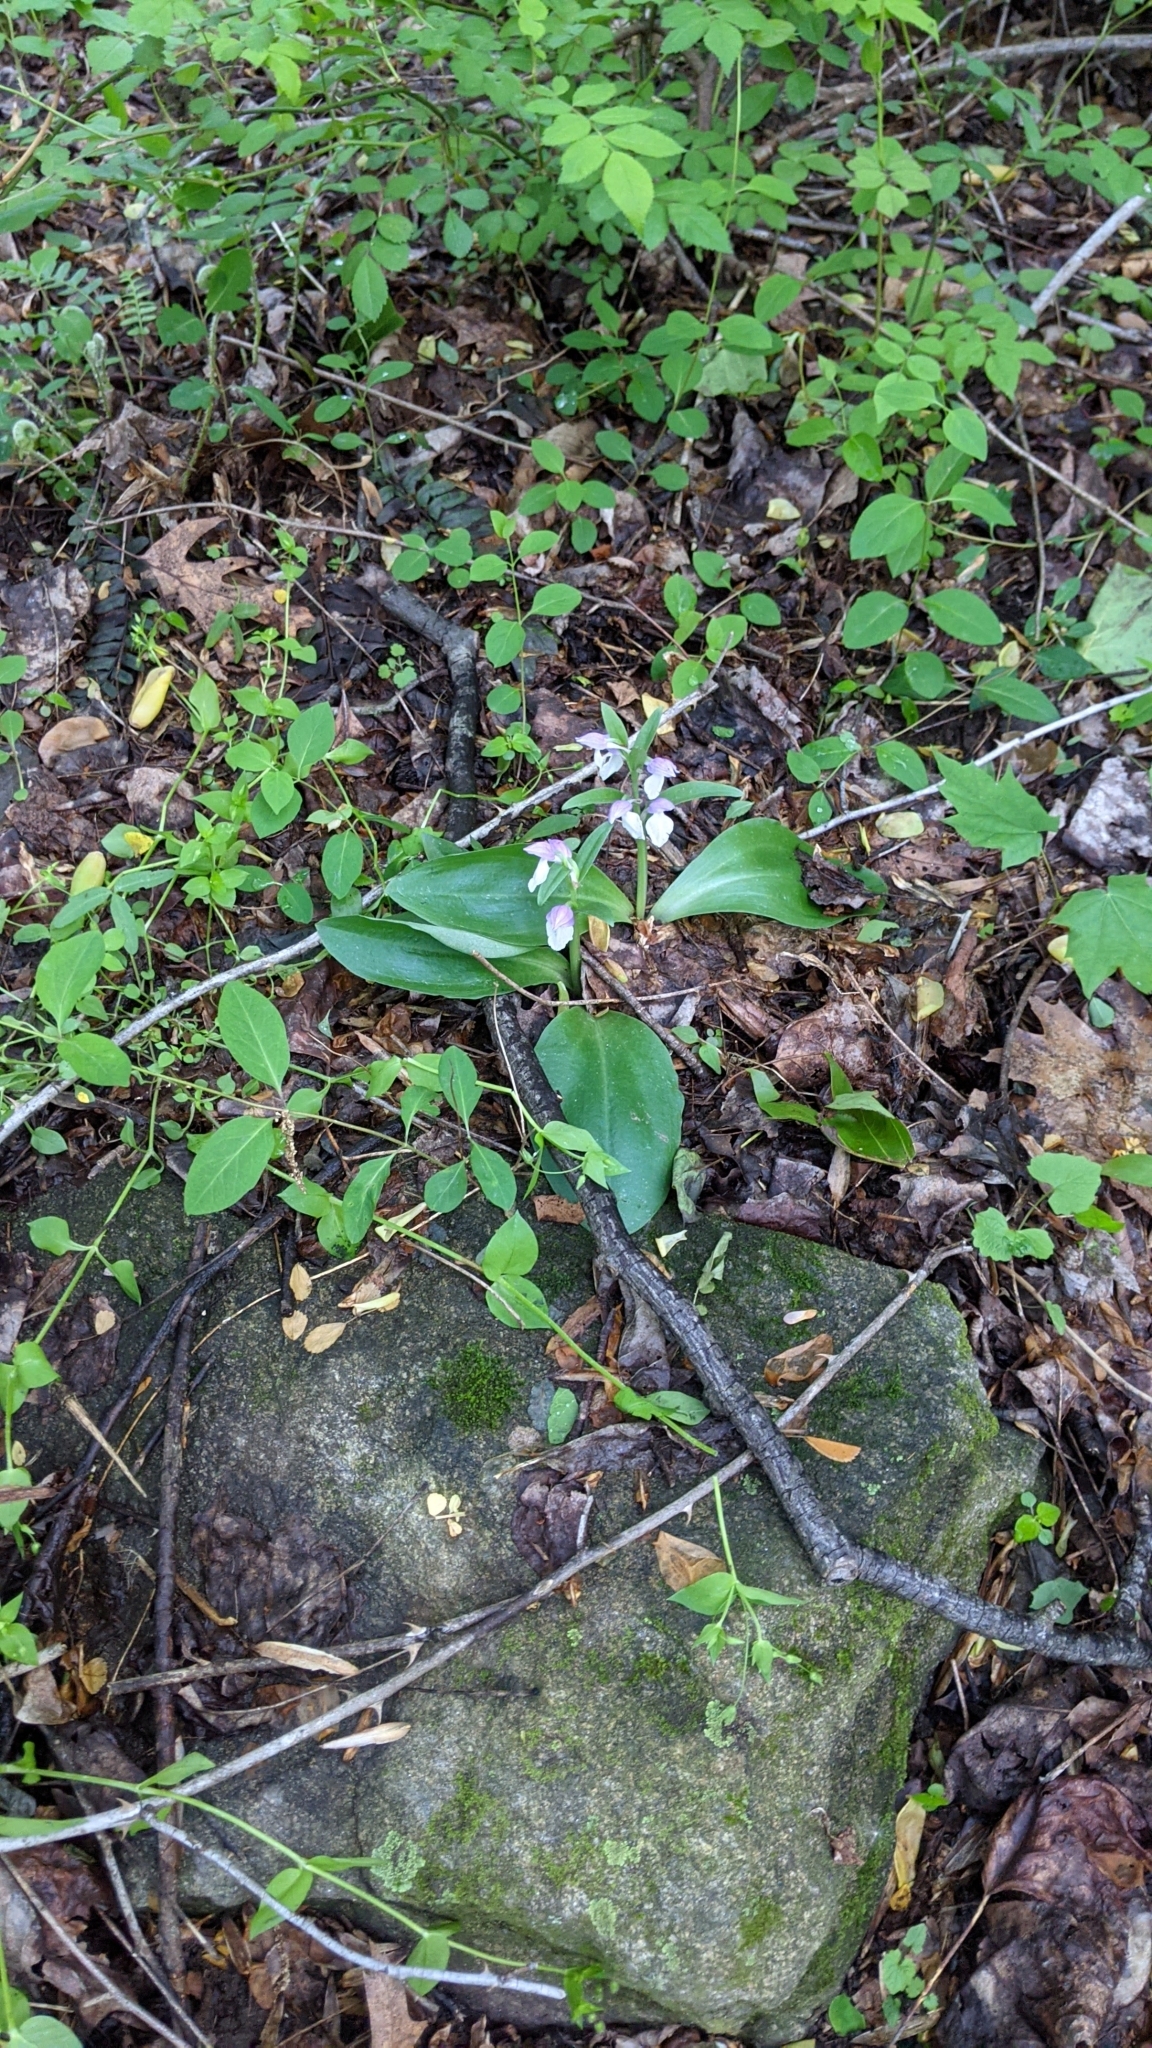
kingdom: Plantae
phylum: Tracheophyta
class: Liliopsida
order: Asparagales
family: Orchidaceae
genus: Galearis
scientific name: Galearis spectabilis
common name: Purple-hooded orchis
